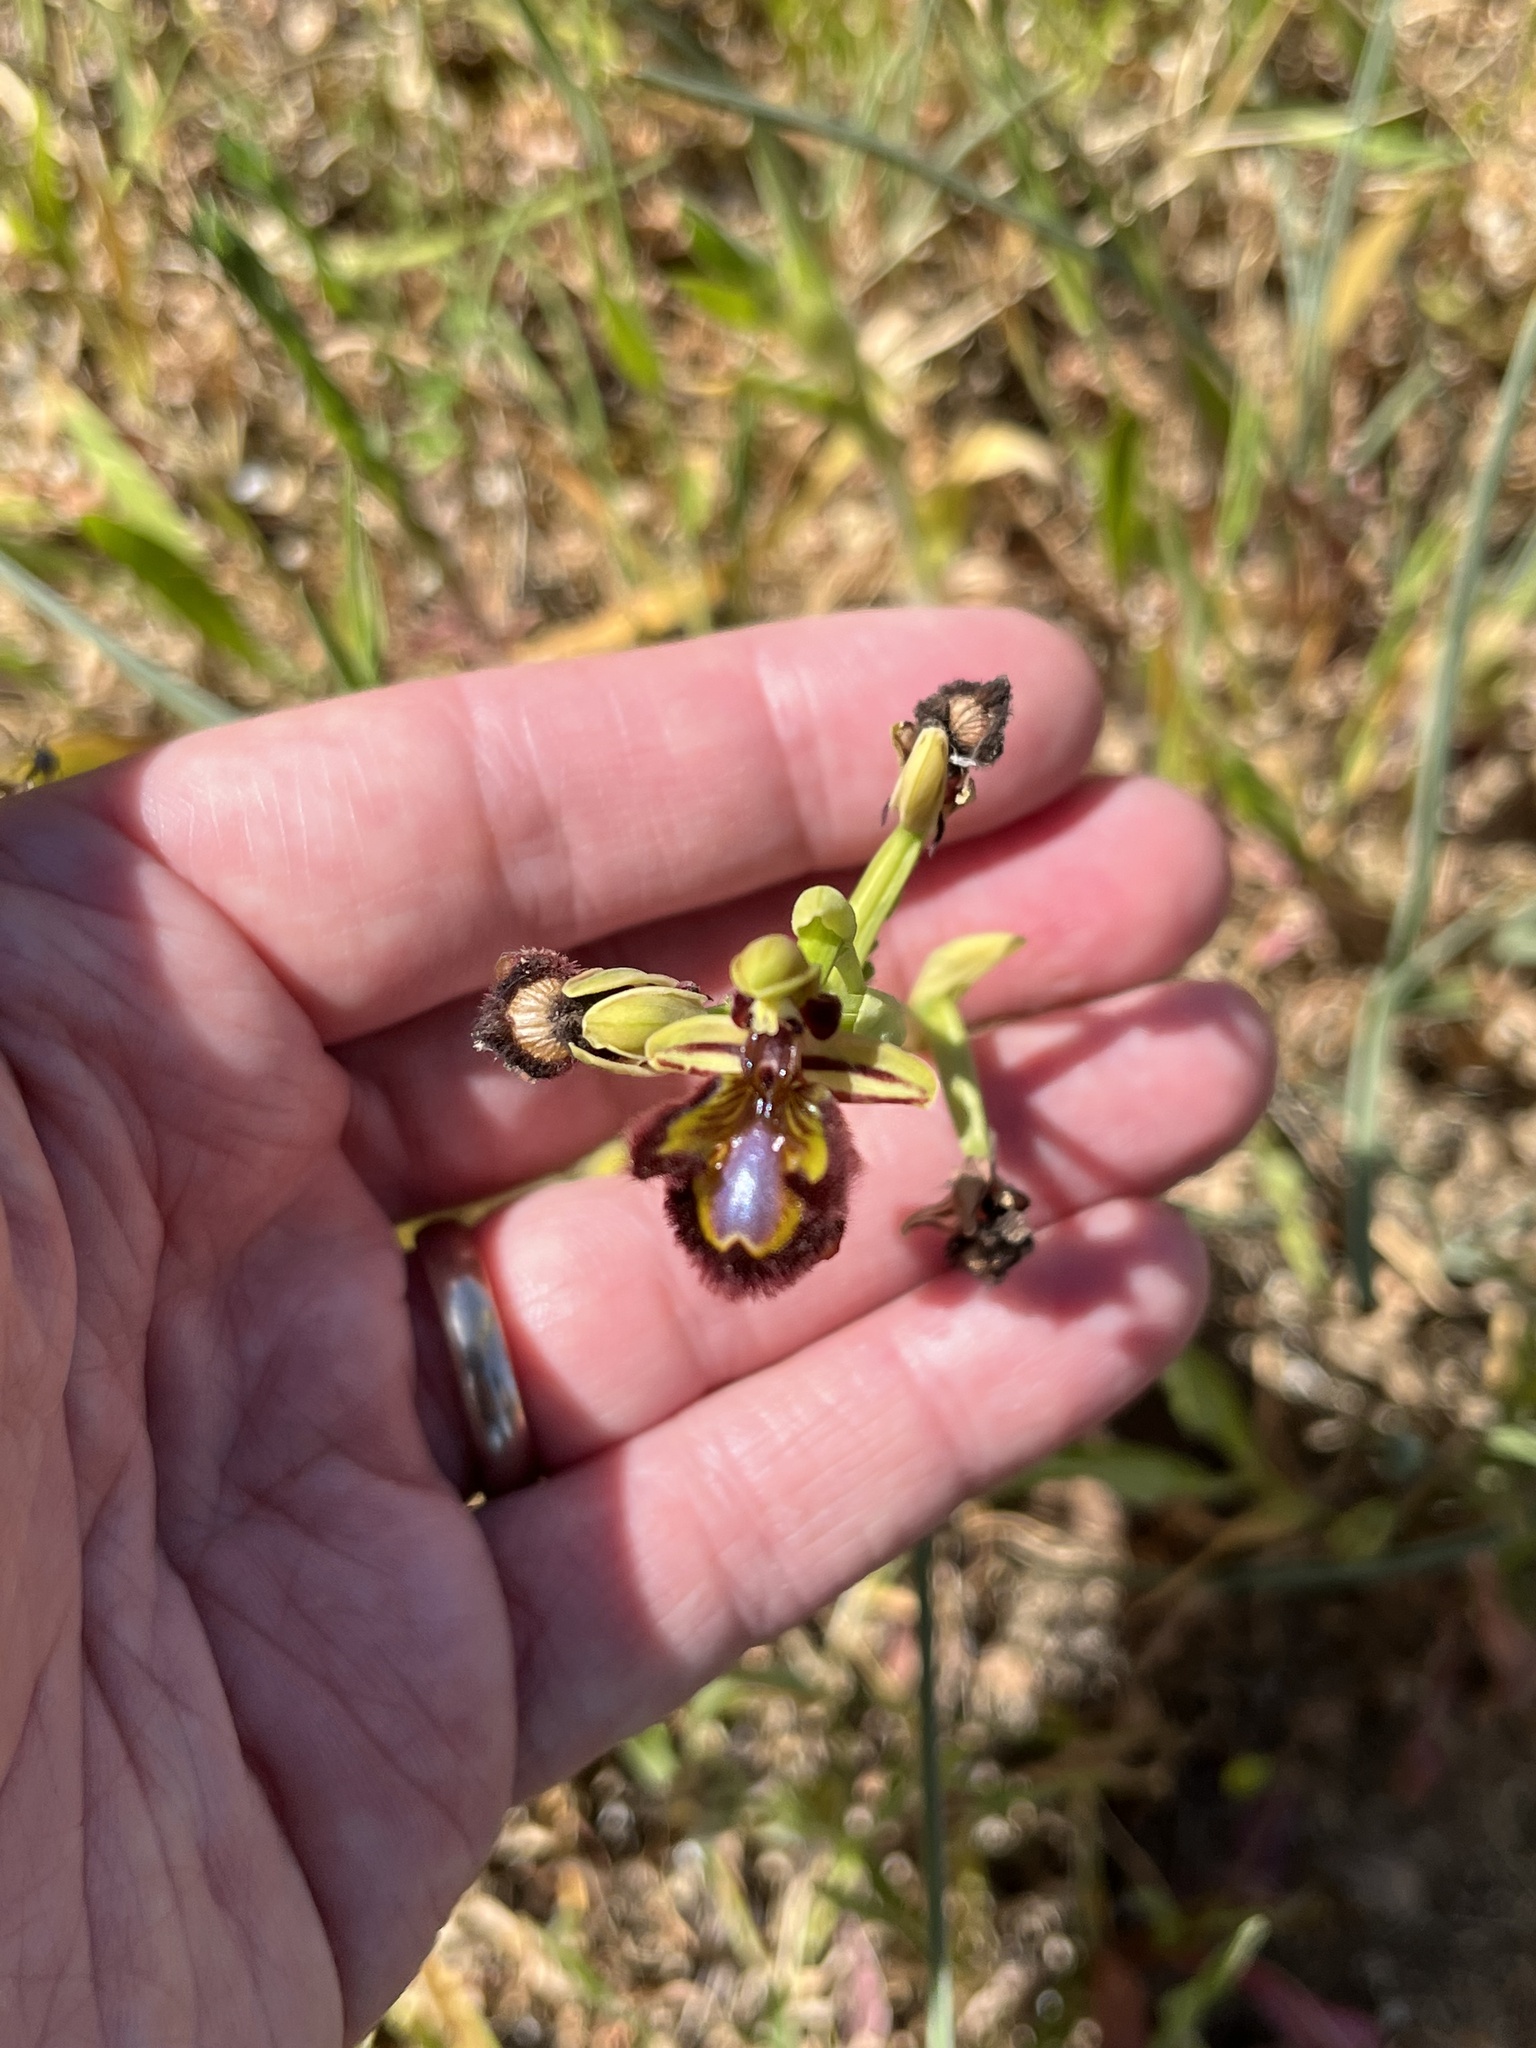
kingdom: Plantae
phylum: Tracheophyta
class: Liliopsida
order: Asparagales
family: Orchidaceae
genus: Ophrys
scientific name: Ophrys speculum
